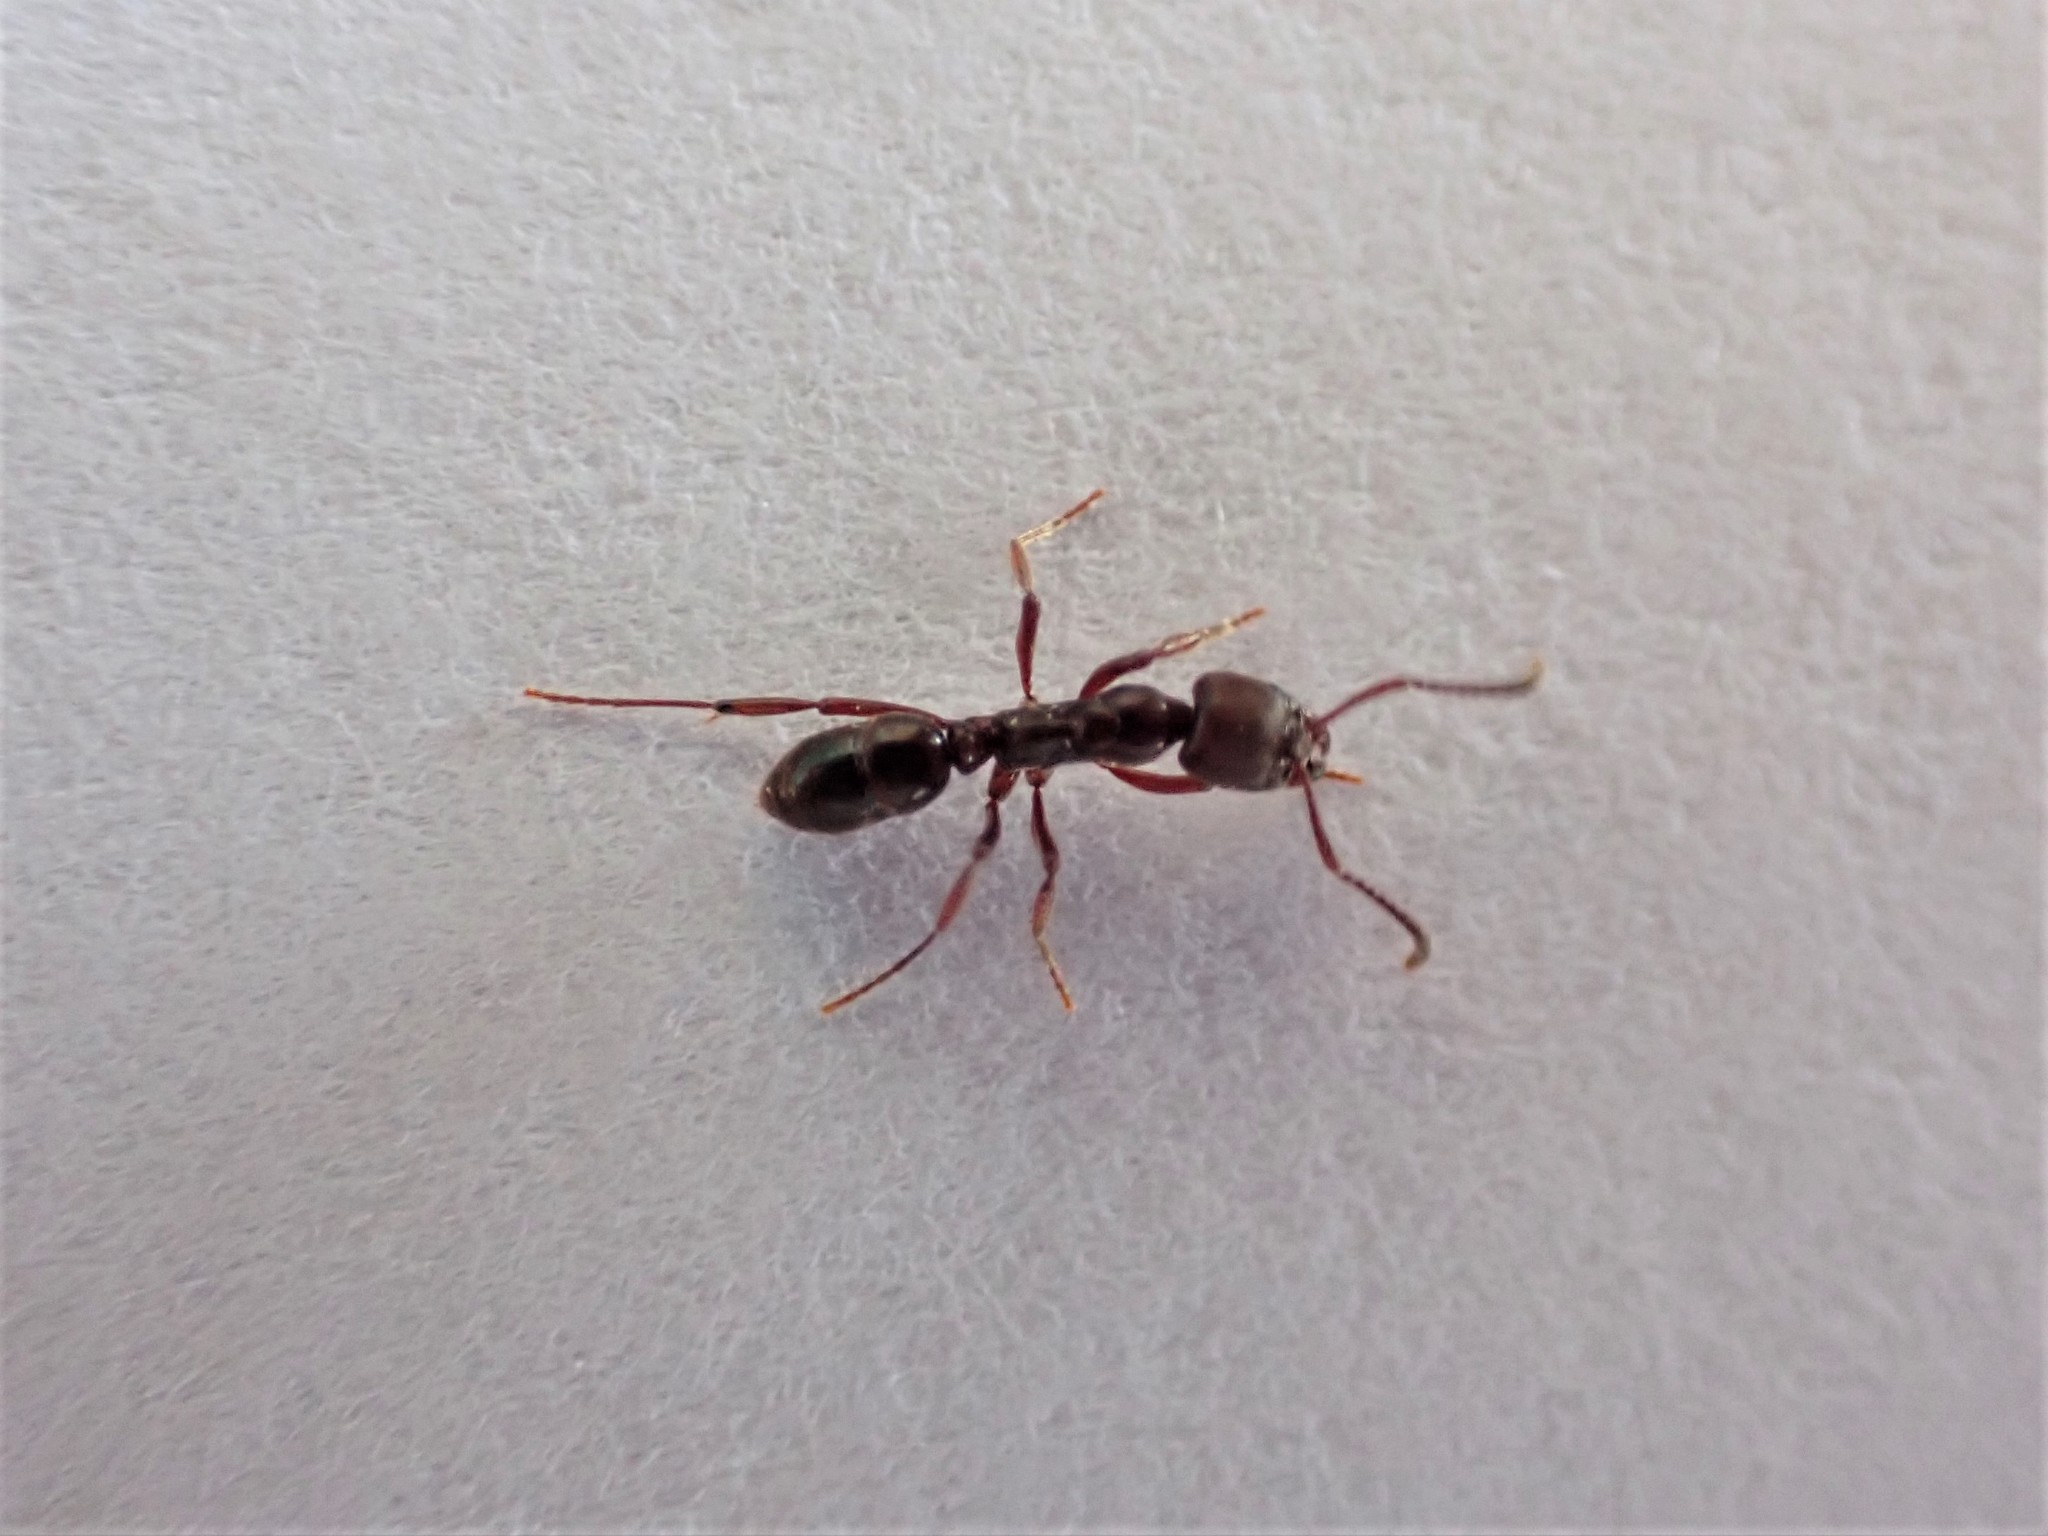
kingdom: Animalia
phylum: Arthropoda
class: Insecta
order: Hymenoptera
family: Formicidae
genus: Austroponera
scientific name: Austroponera
